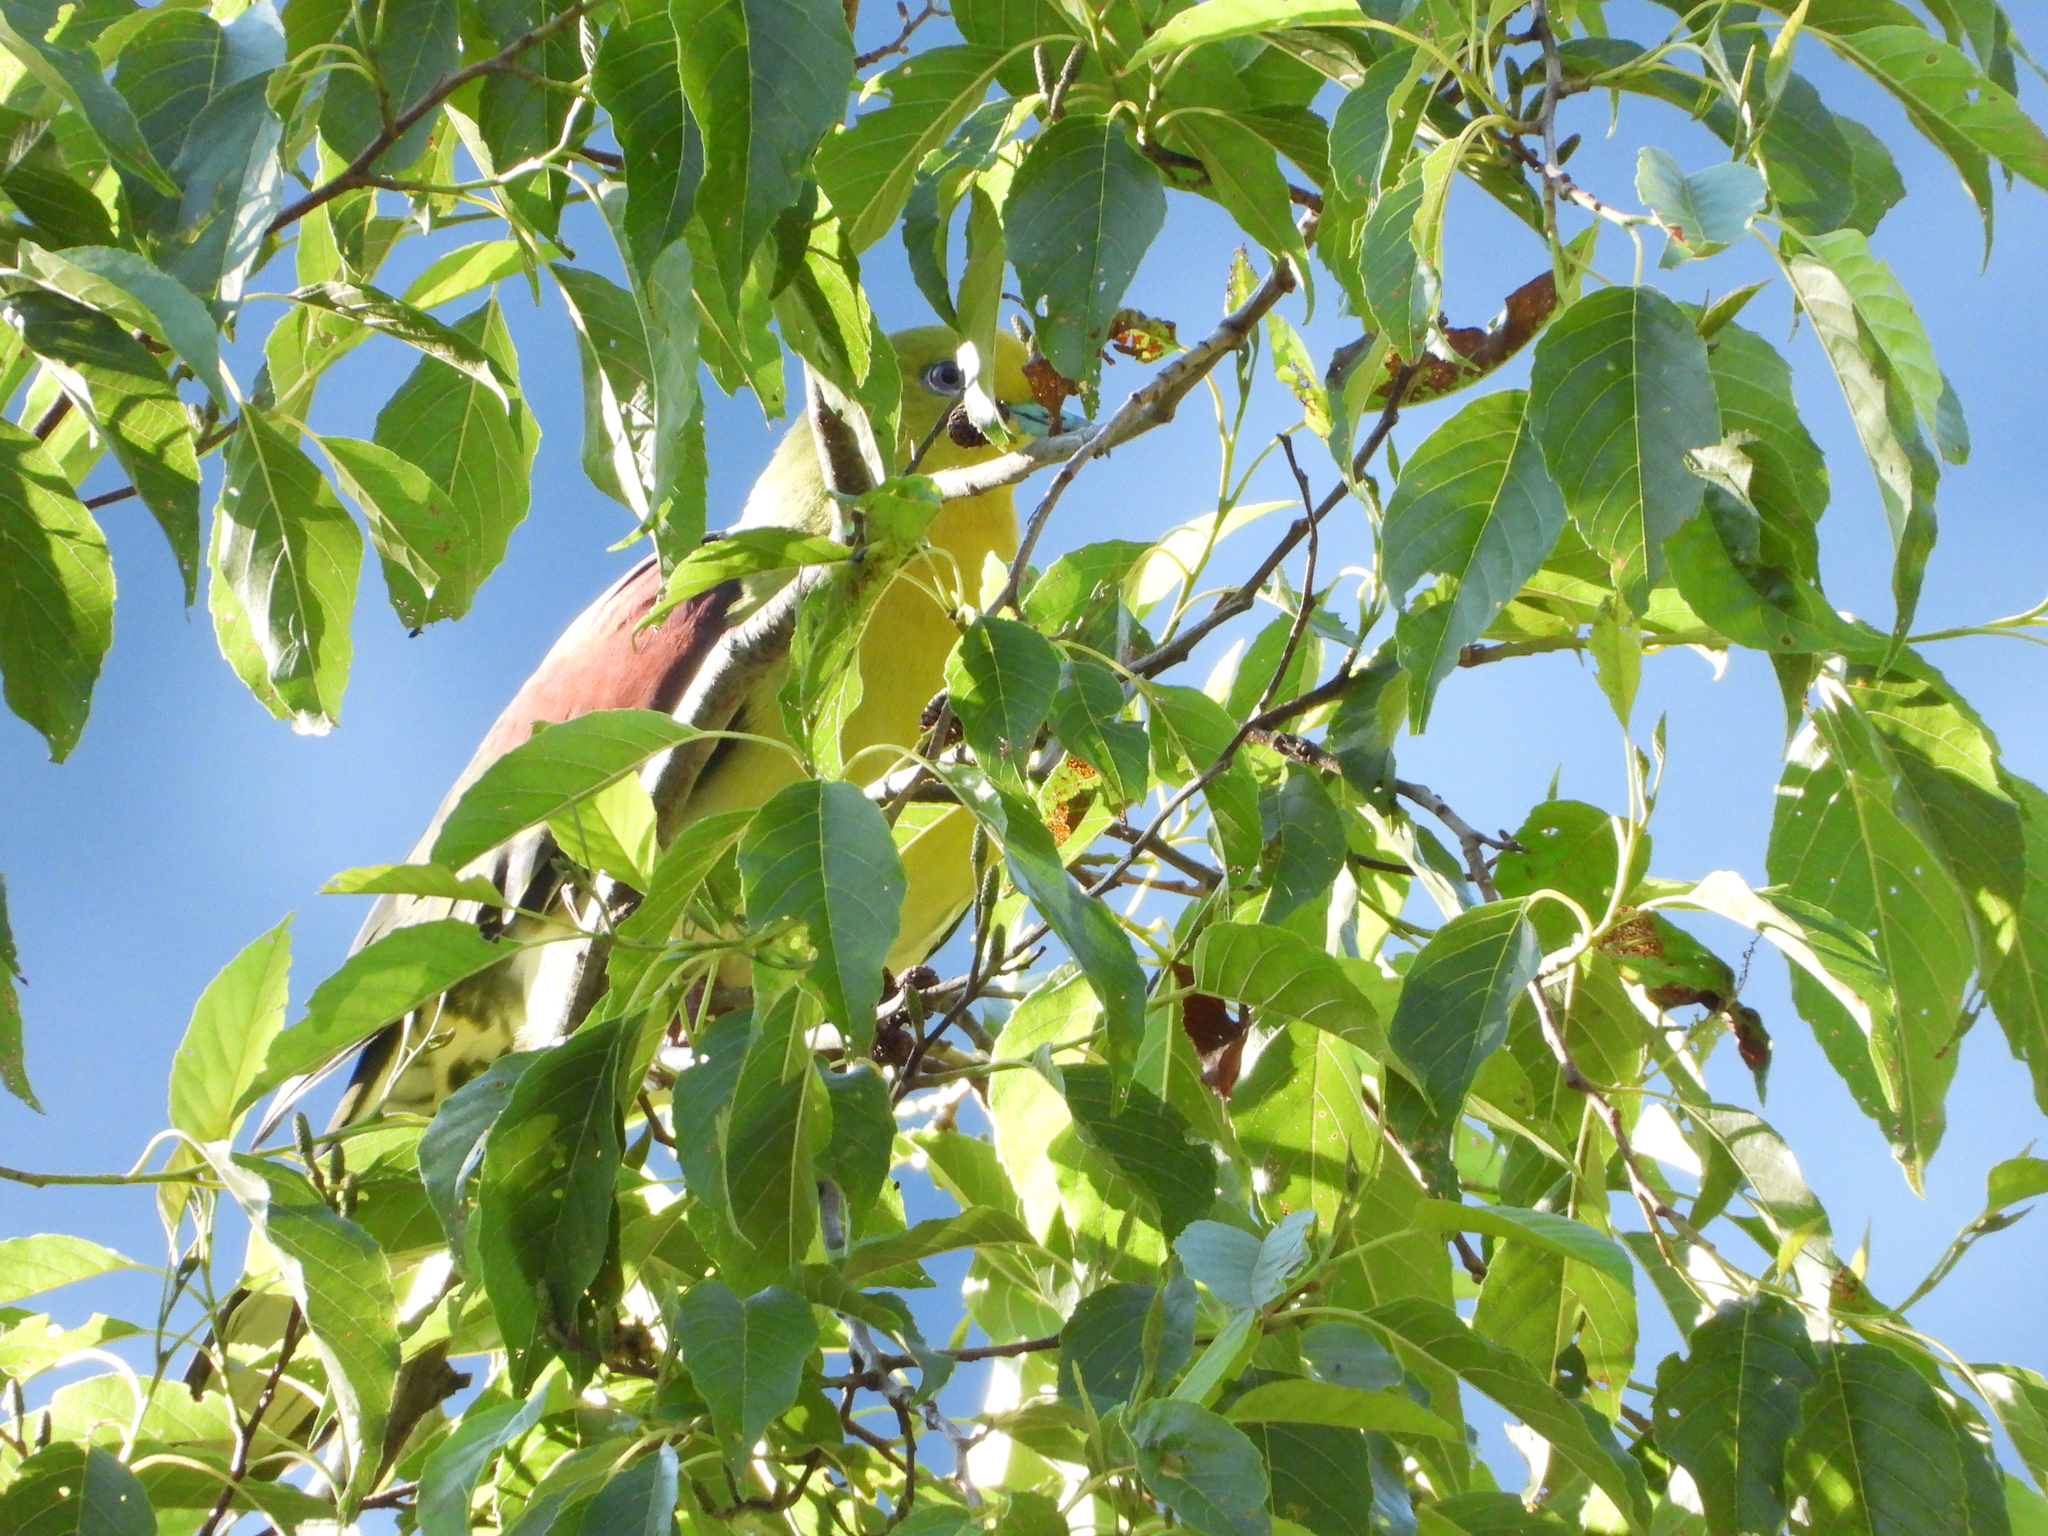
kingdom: Animalia
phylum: Chordata
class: Aves
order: Columbiformes
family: Columbidae
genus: Treron
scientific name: Treron sieboldii
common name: White-bellied green pigeon
